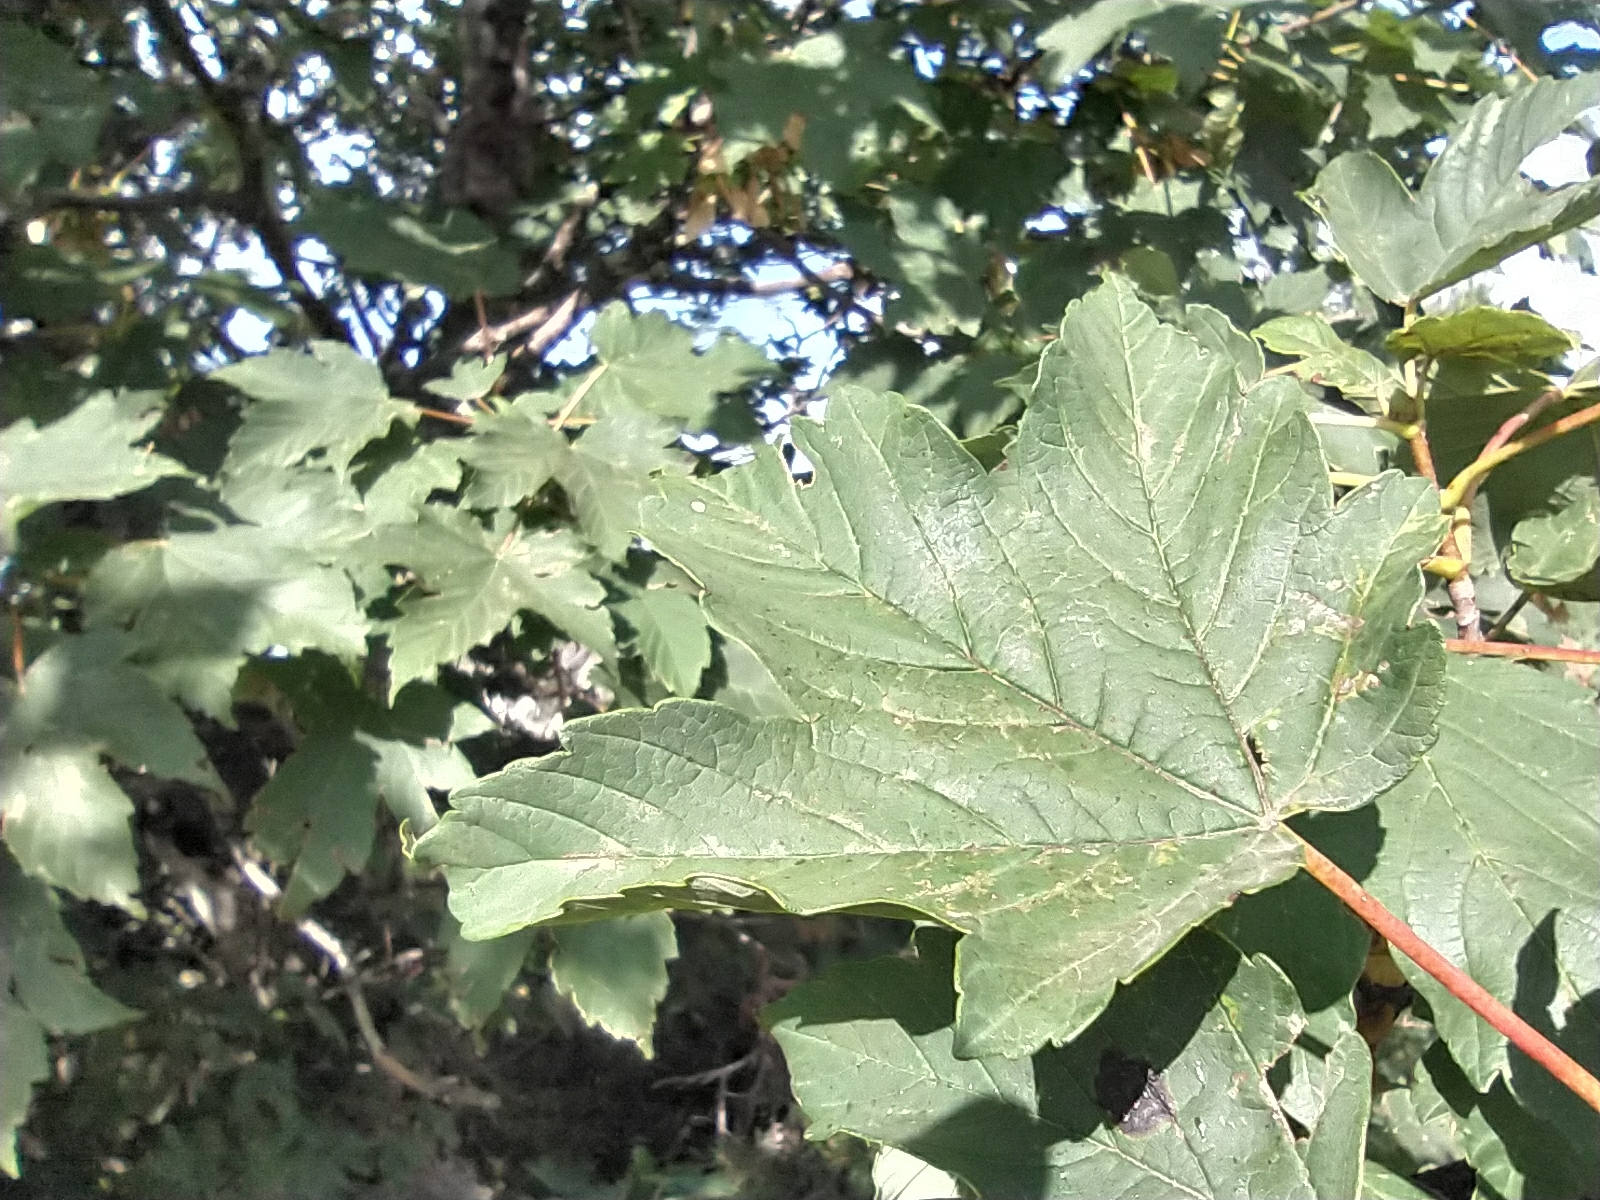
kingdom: Plantae
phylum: Tracheophyta
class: Magnoliopsida
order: Sapindales
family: Sapindaceae
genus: Acer
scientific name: Acer pseudoplatanus
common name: Sycamore
